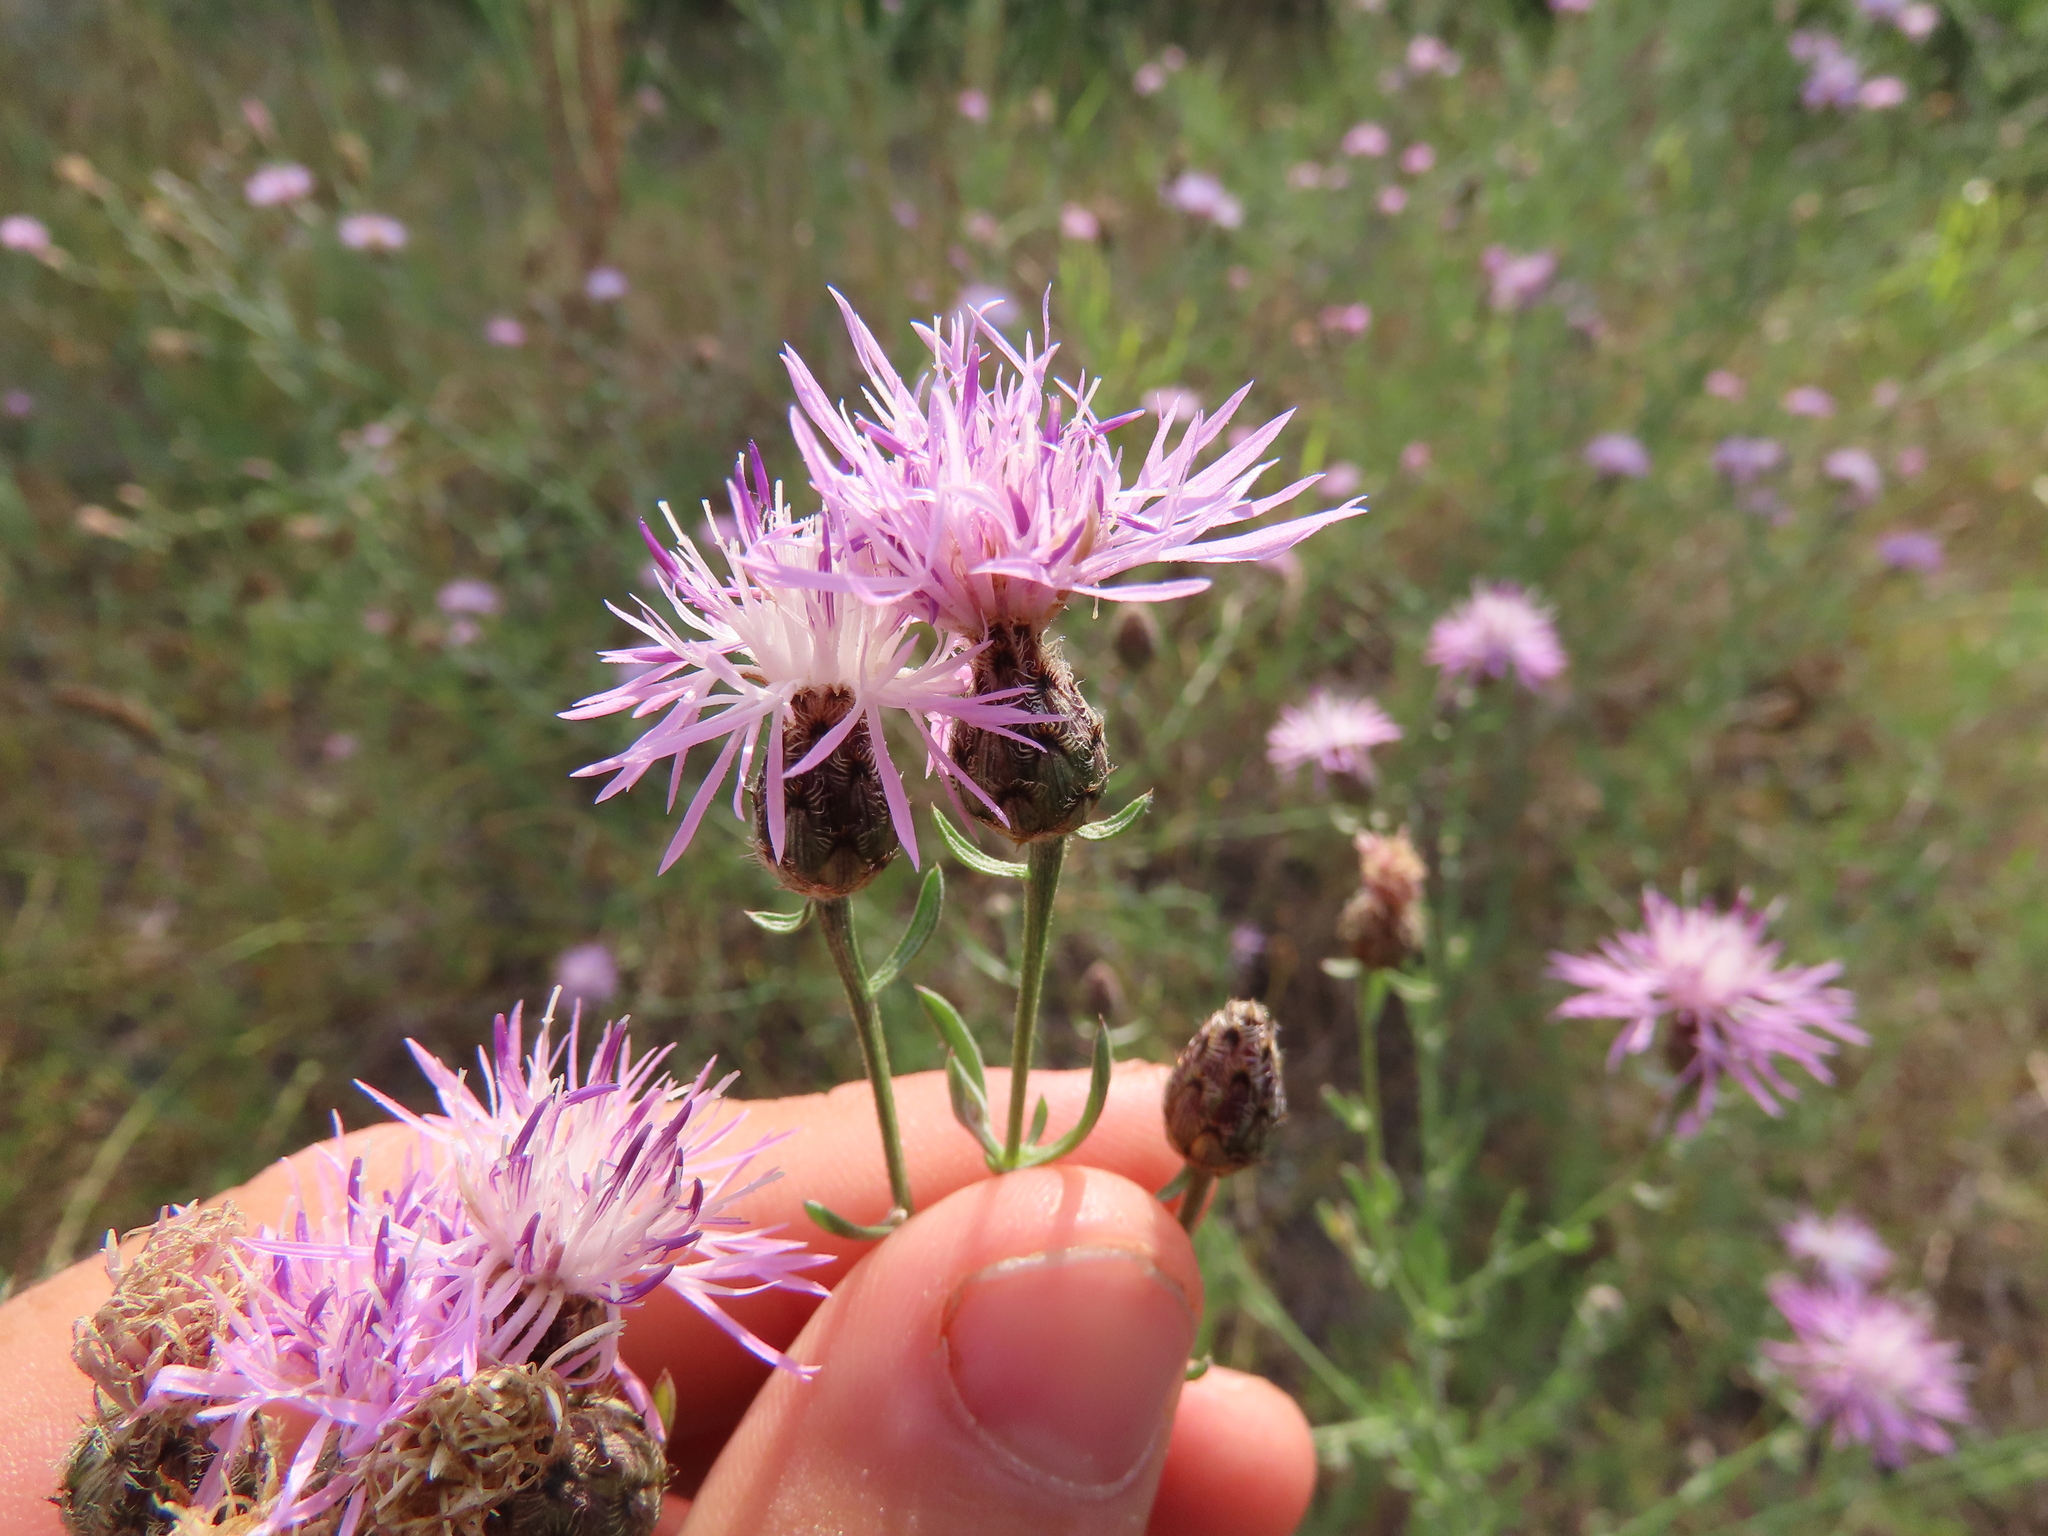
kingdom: Plantae
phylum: Tracheophyta
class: Magnoliopsida
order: Asterales
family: Asteraceae
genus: Centaurea
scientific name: Centaurea stoebe
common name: Spotted knapweed
